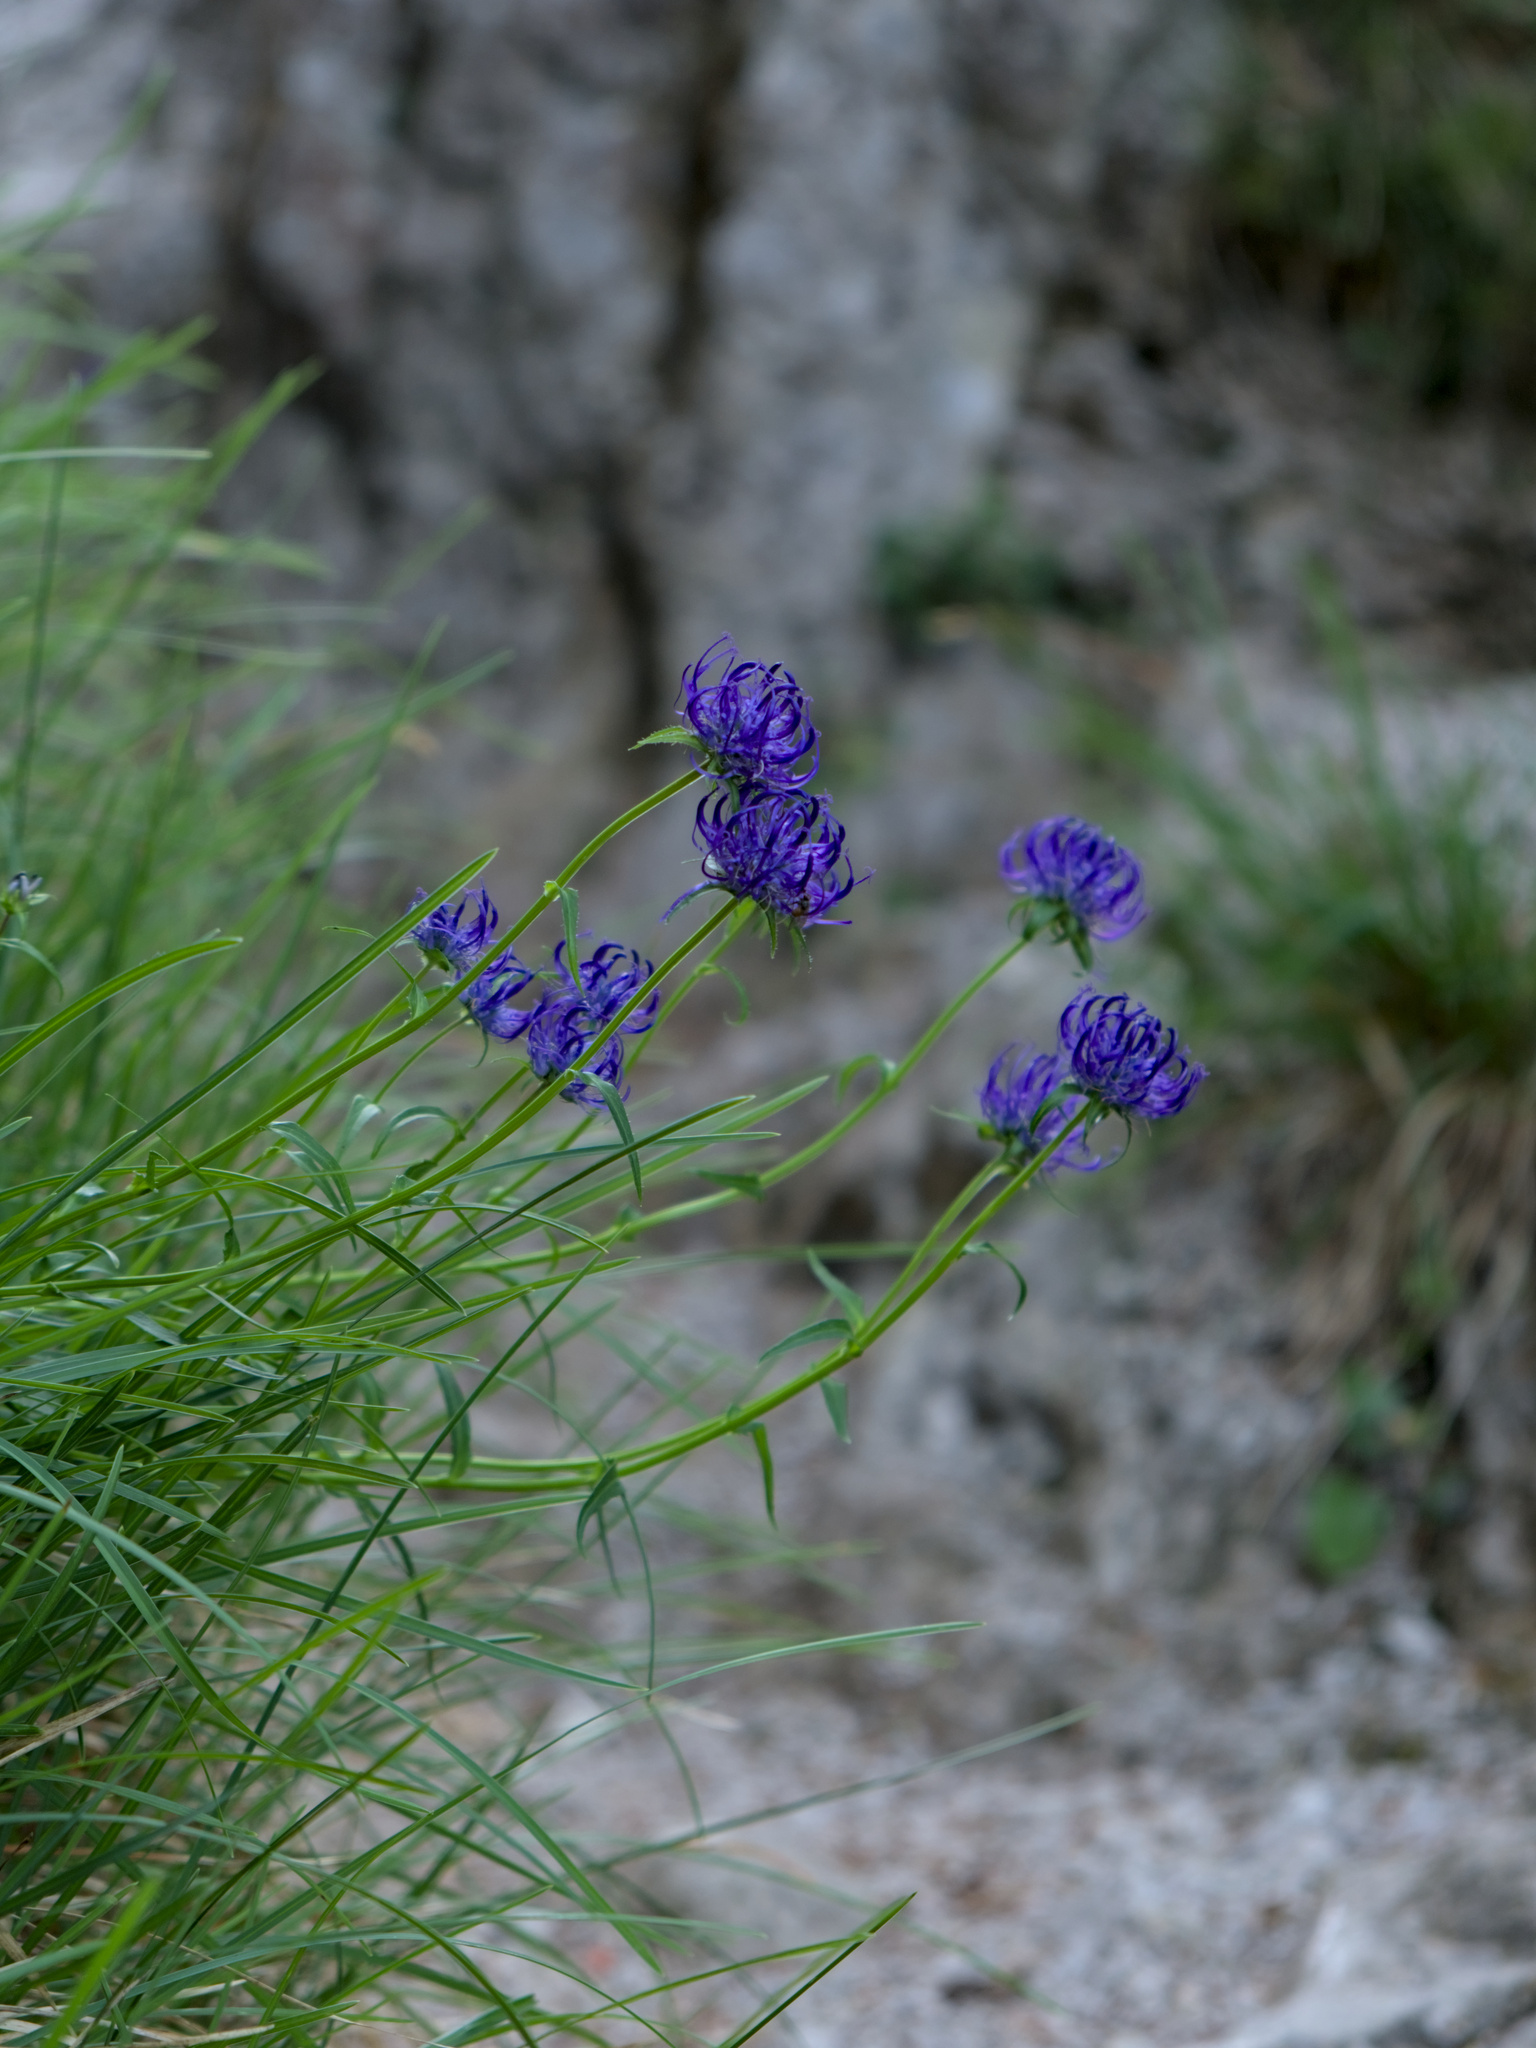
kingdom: Plantae
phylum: Tracheophyta
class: Magnoliopsida
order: Asterales
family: Campanulaceae
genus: Phyteuma
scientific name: Phyteuma orbiculare
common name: Round-headed rampion
